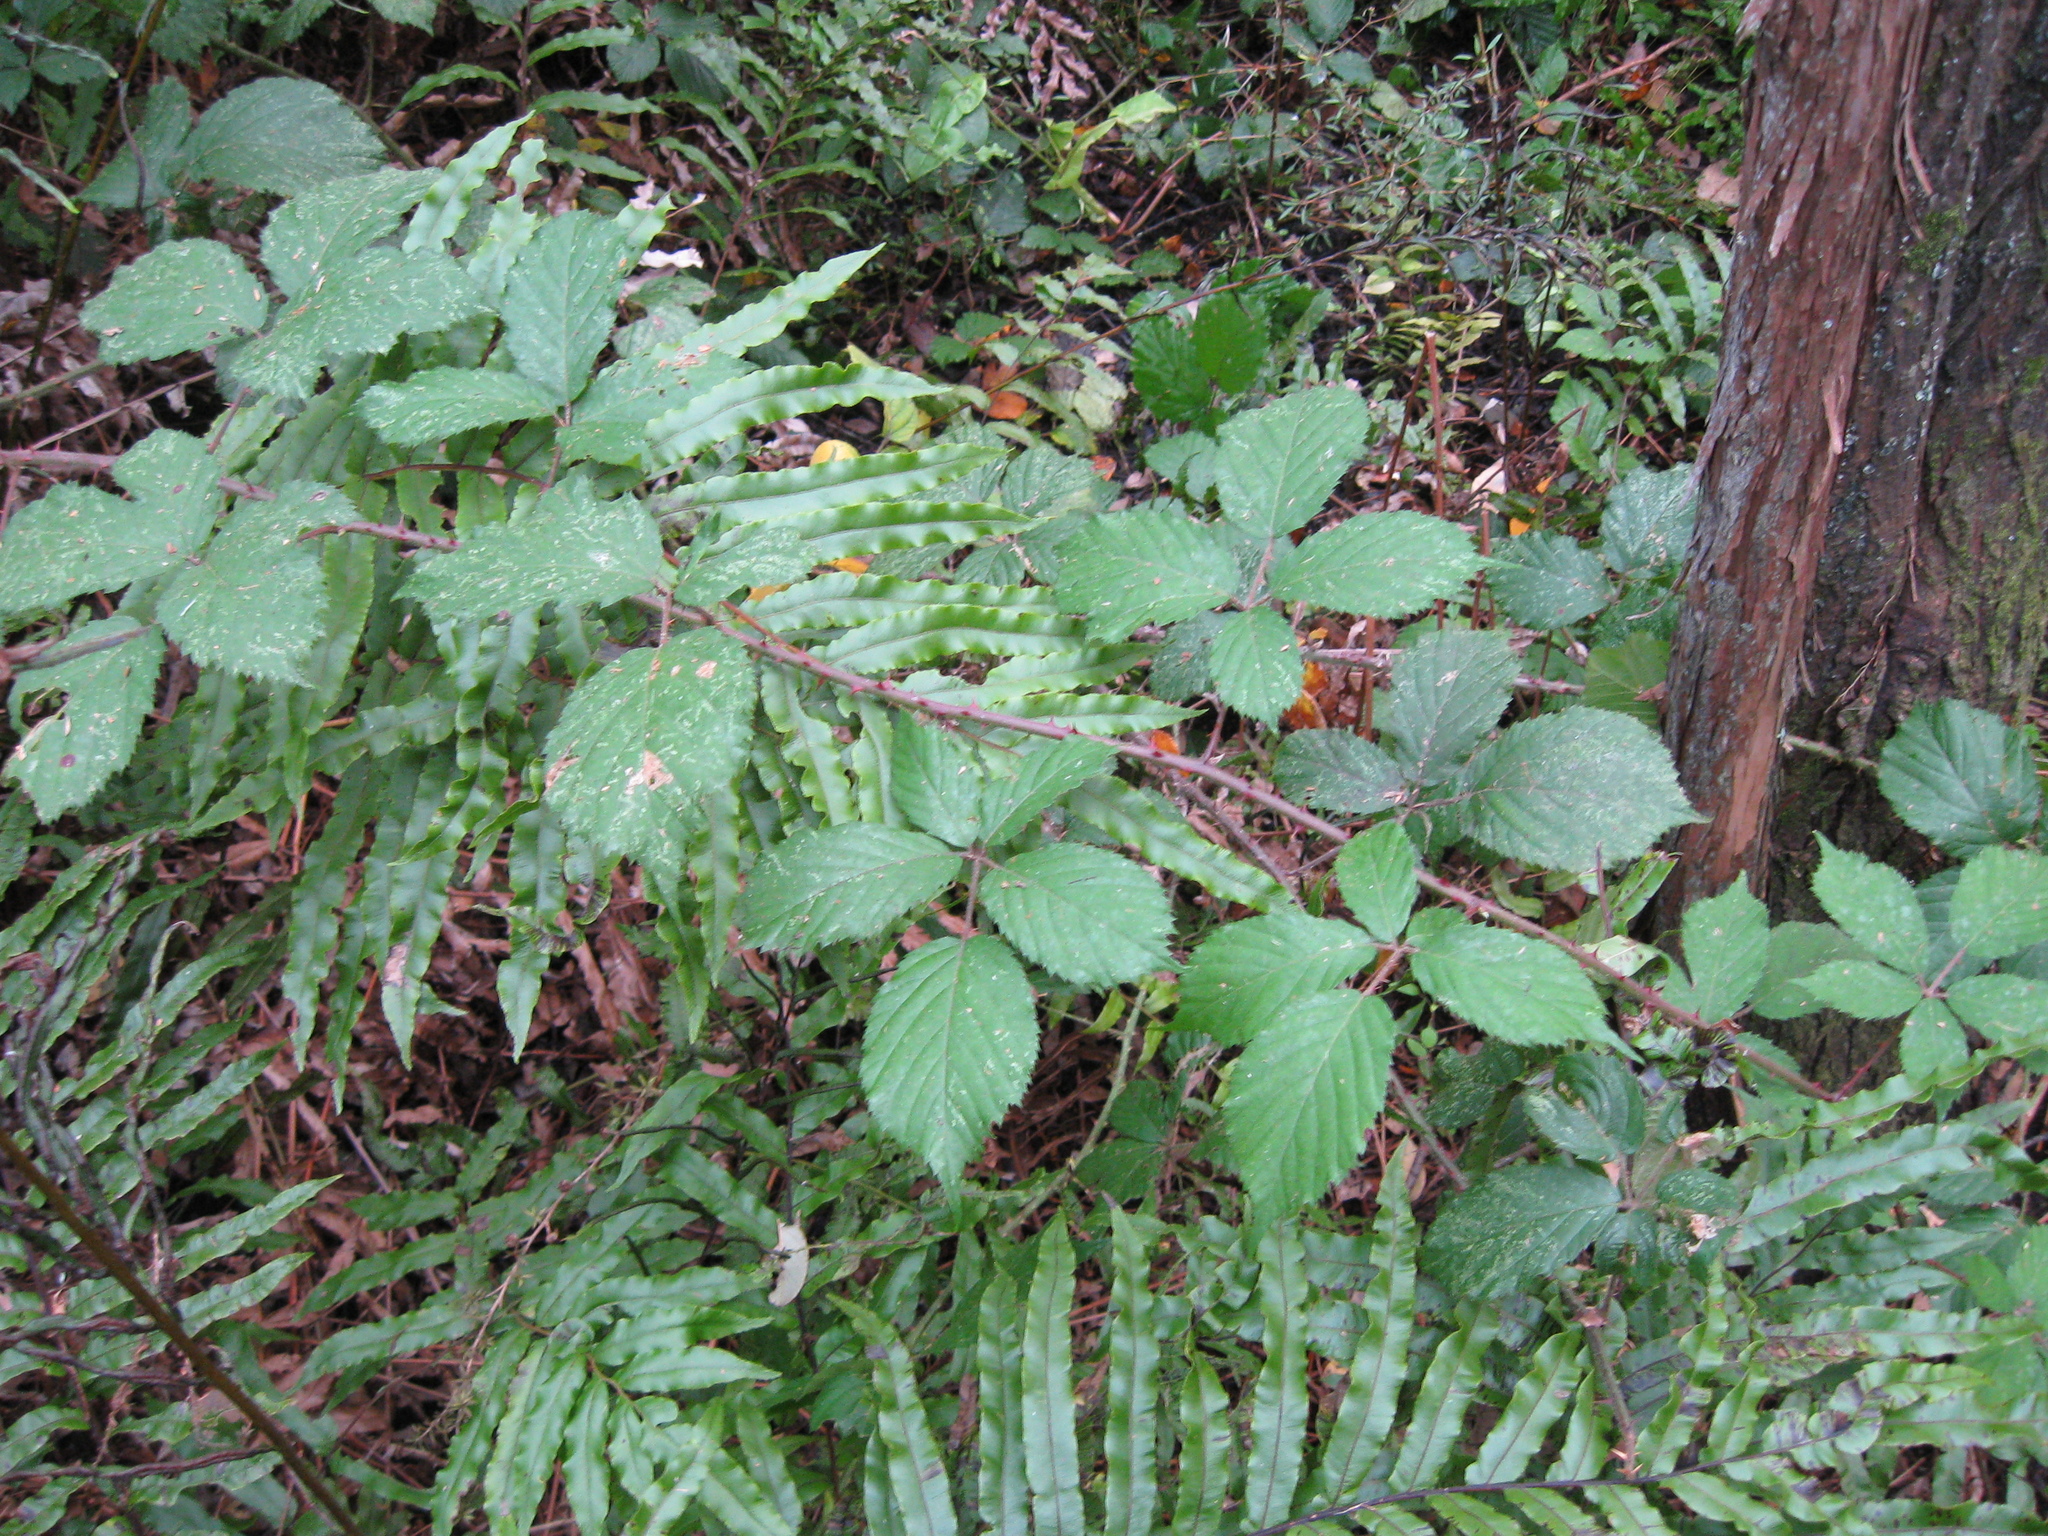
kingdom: Plantae
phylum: Tracheophyta
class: Polypodiopsida
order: Polypodiales
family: Blechnaceae
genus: Parablechnum
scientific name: Parablechnum minus
